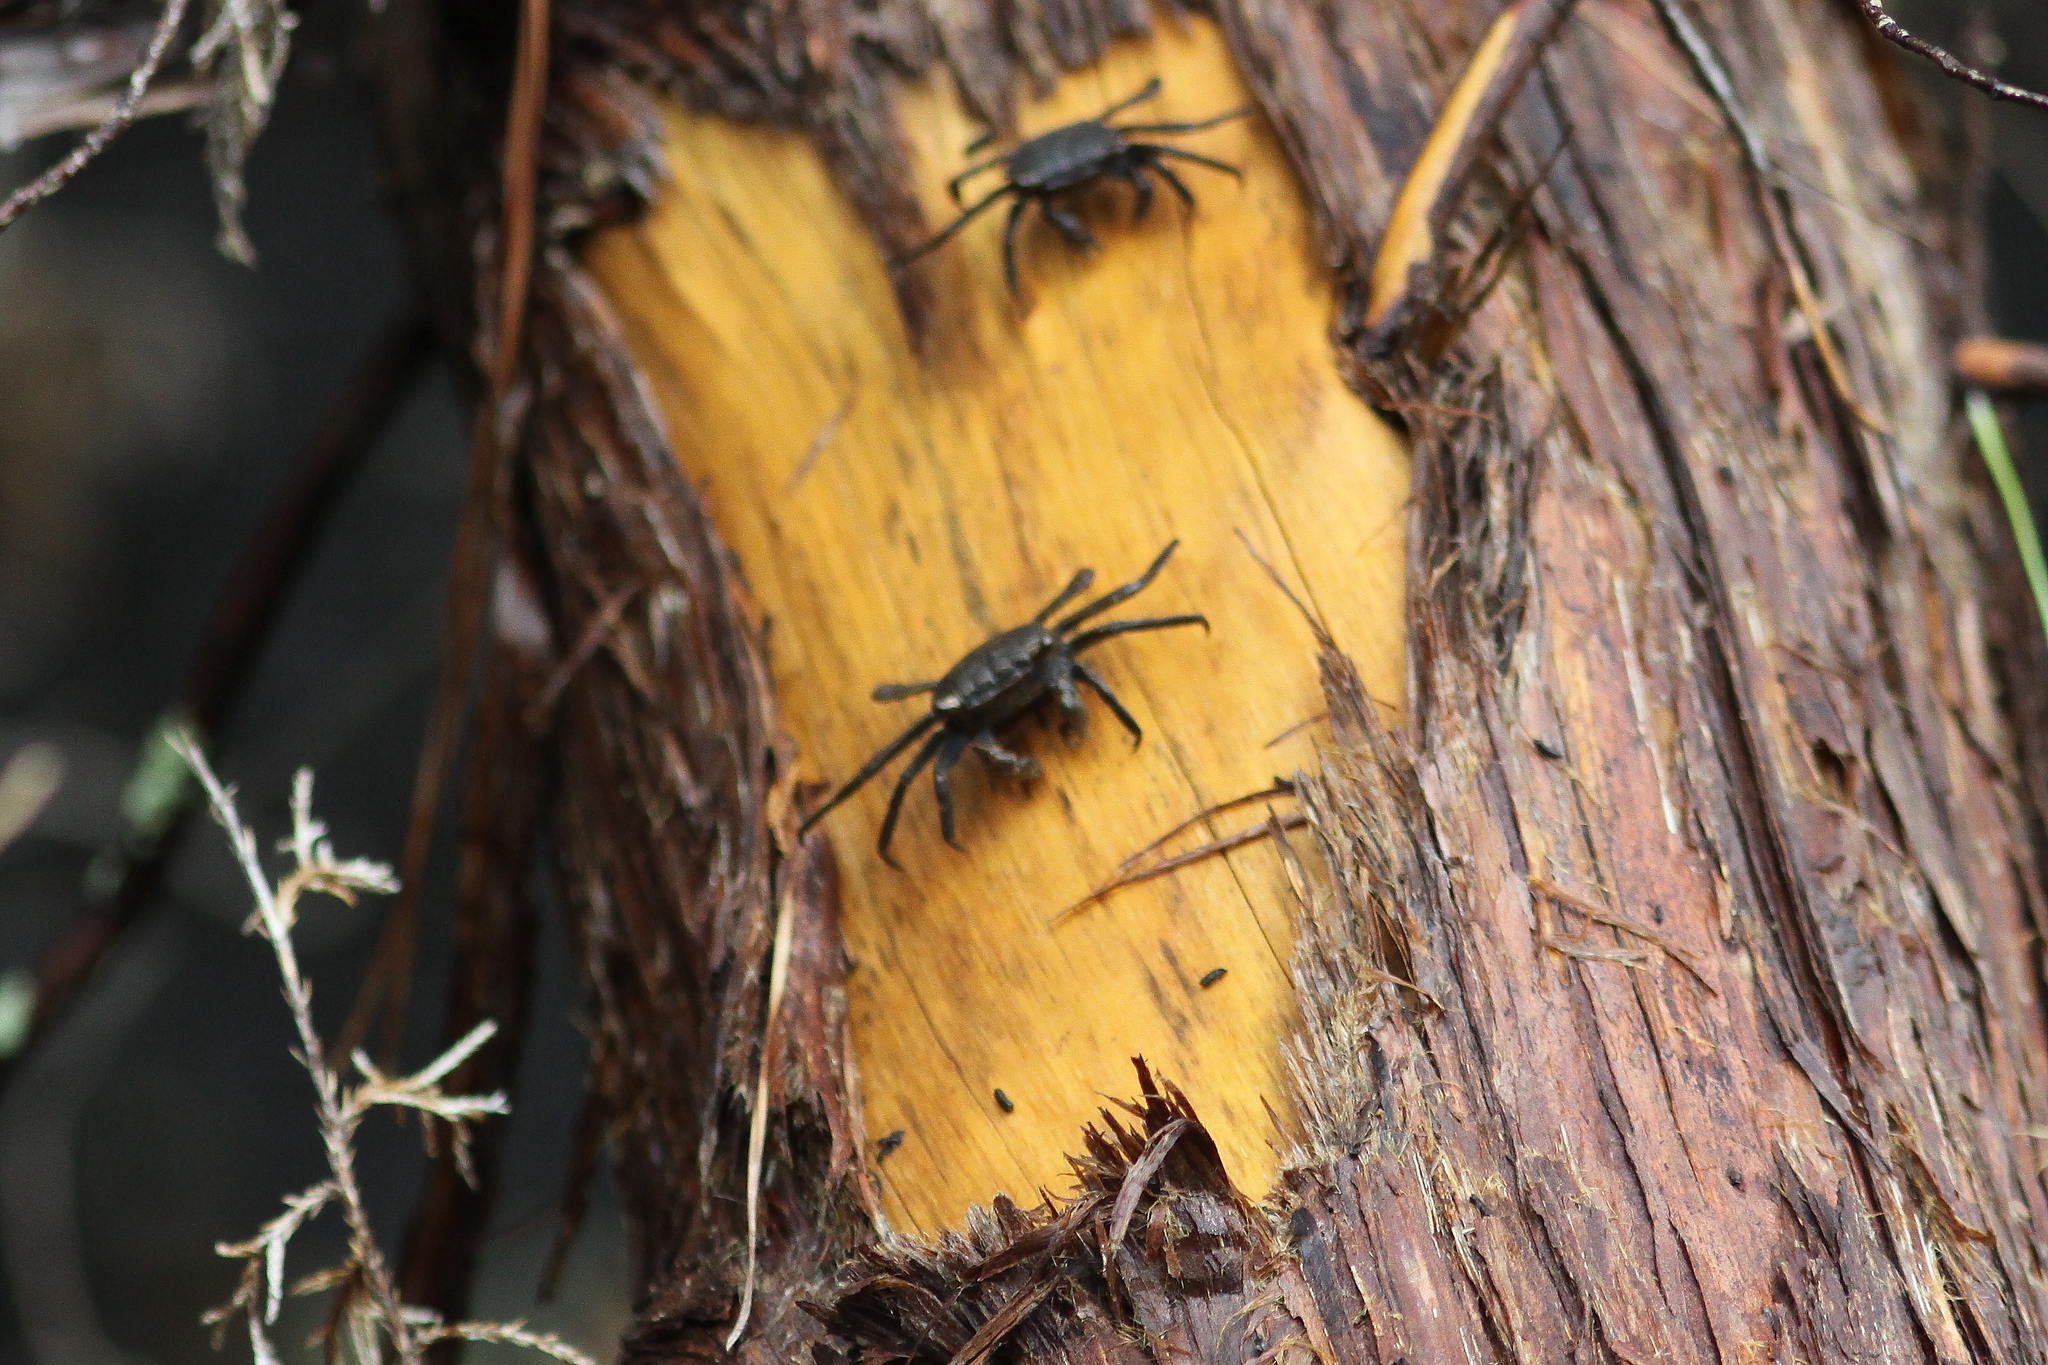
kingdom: Animalia
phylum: Arthropoda
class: Malacostraca
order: Decapoda
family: Sesarmidae
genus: Armases
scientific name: Armases cinereum
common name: Squareback marsh crab
